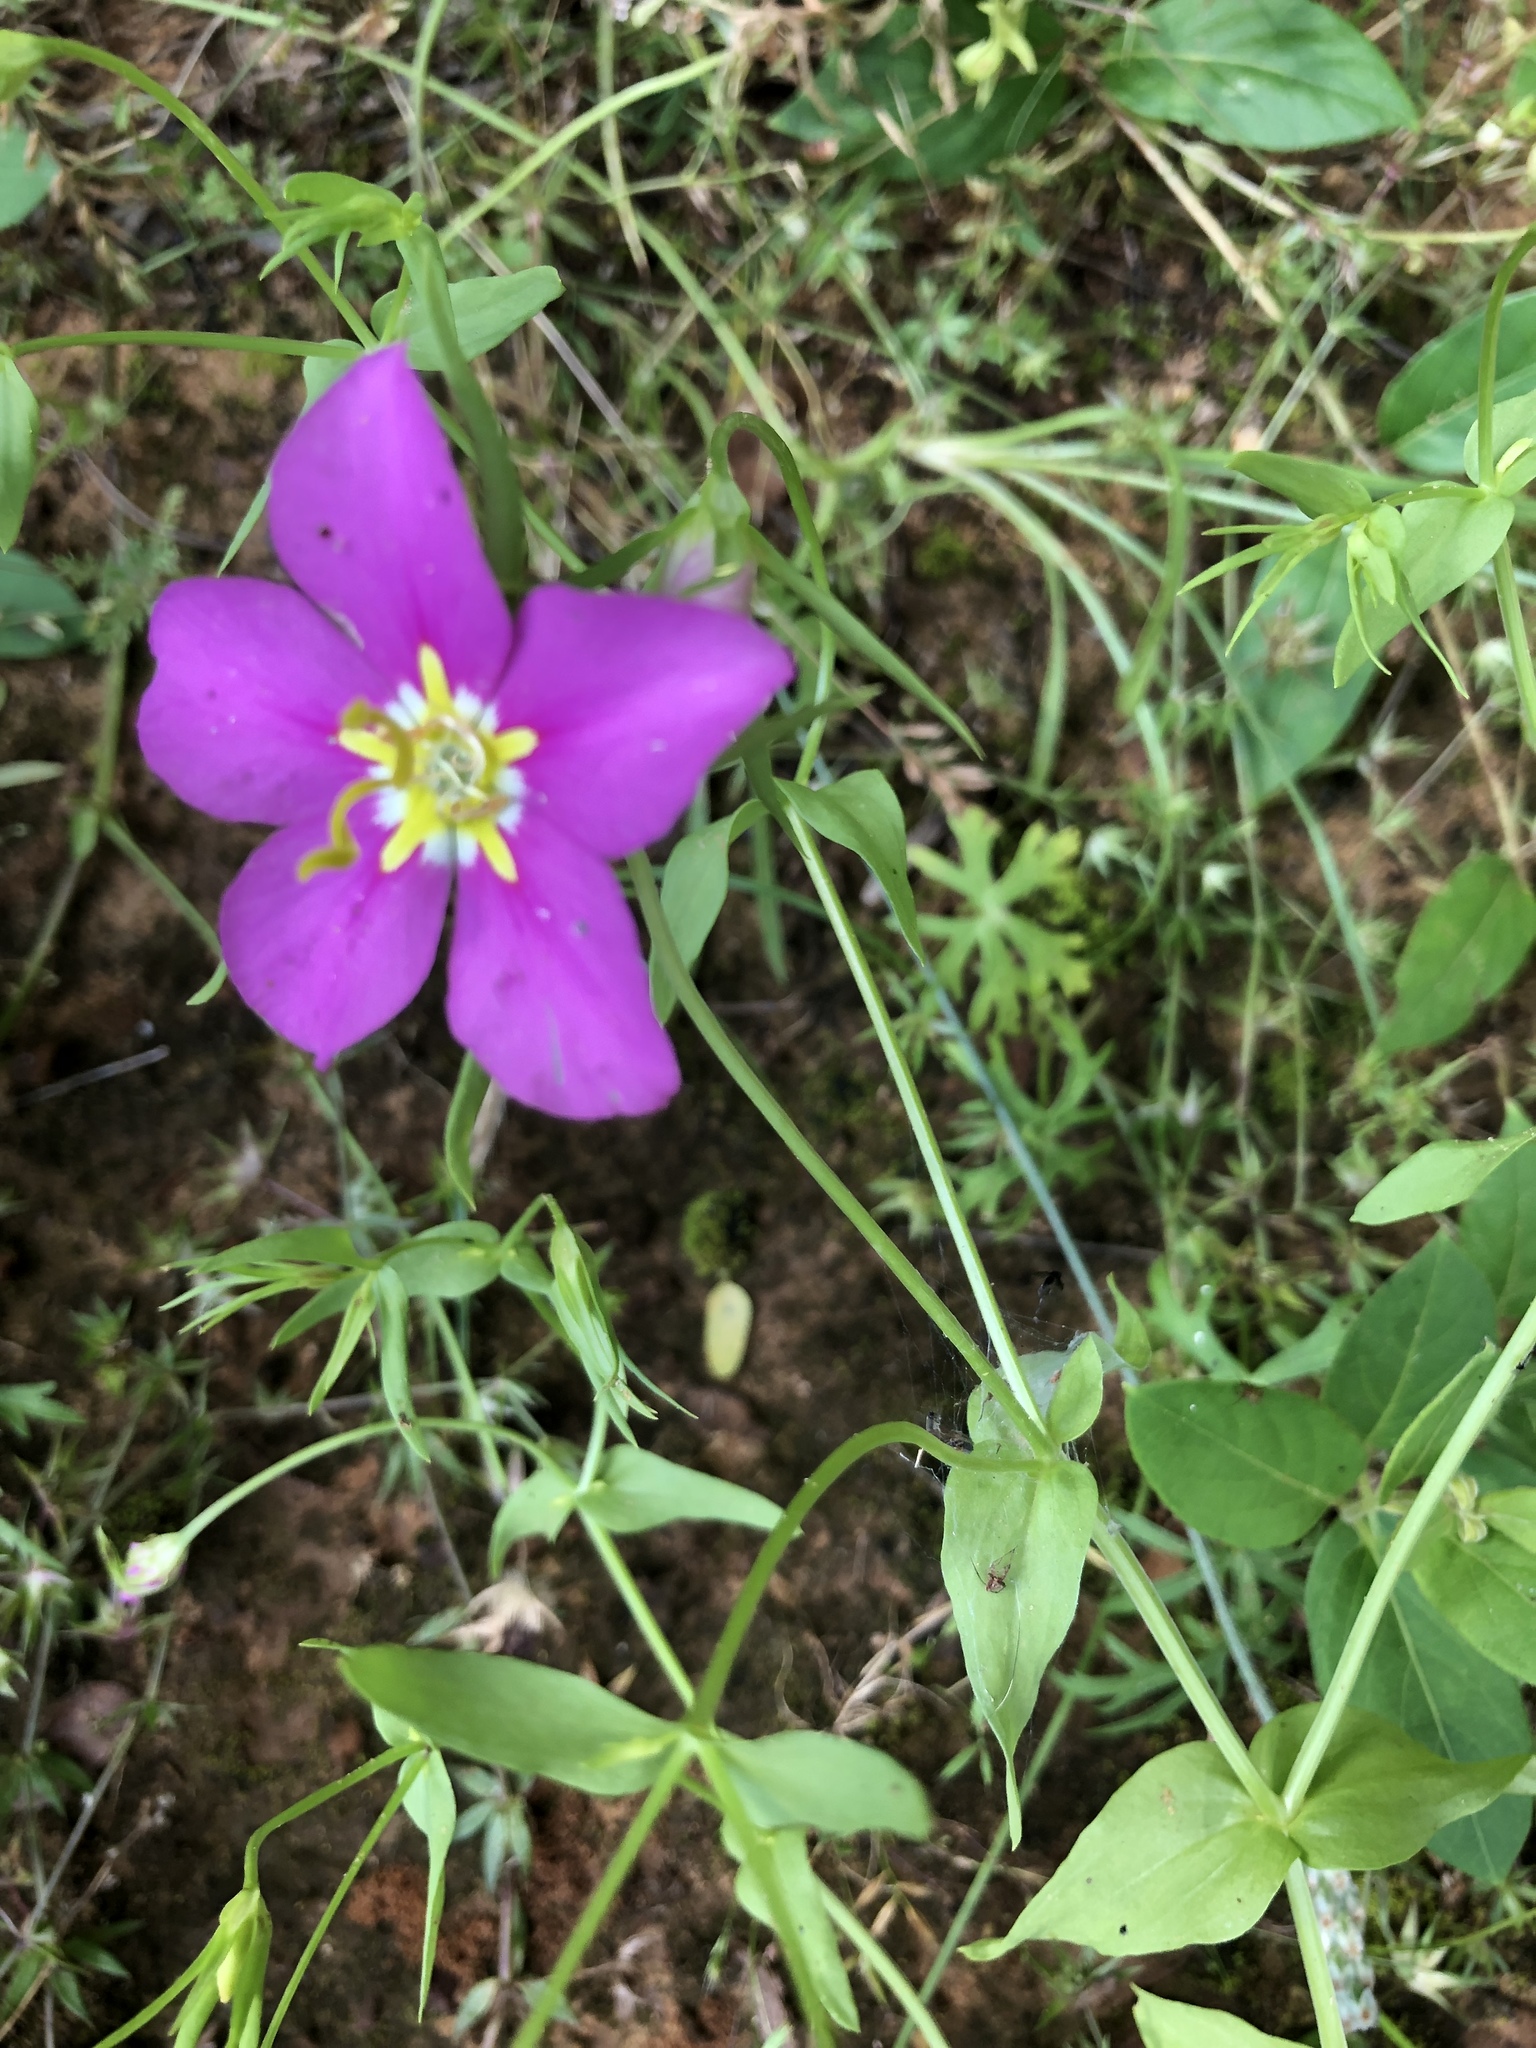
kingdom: Plantae
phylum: Tracheophyta
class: Magnoliopsida
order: Gentianales
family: Gentianaceae
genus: Sabatia
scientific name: Sabatia campestris
